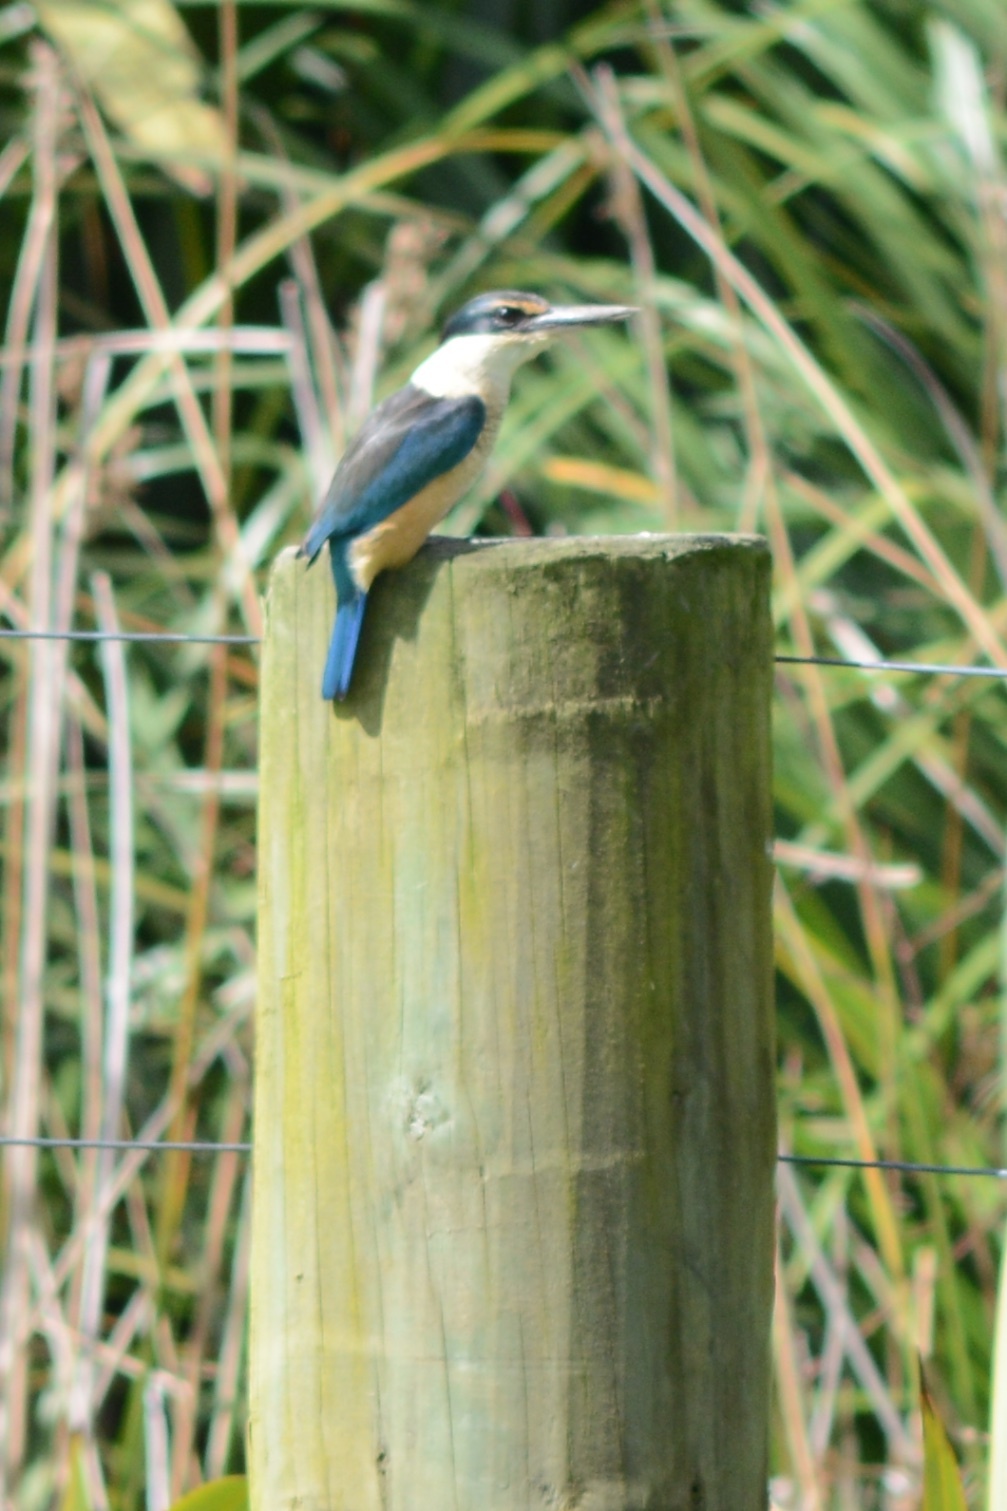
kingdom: Animalia
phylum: Chordata
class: Aves
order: Coraciiformes
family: Alcedinidae
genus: Todiramphus
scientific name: Todiramphus sanctus
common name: Sacred kingfisher
